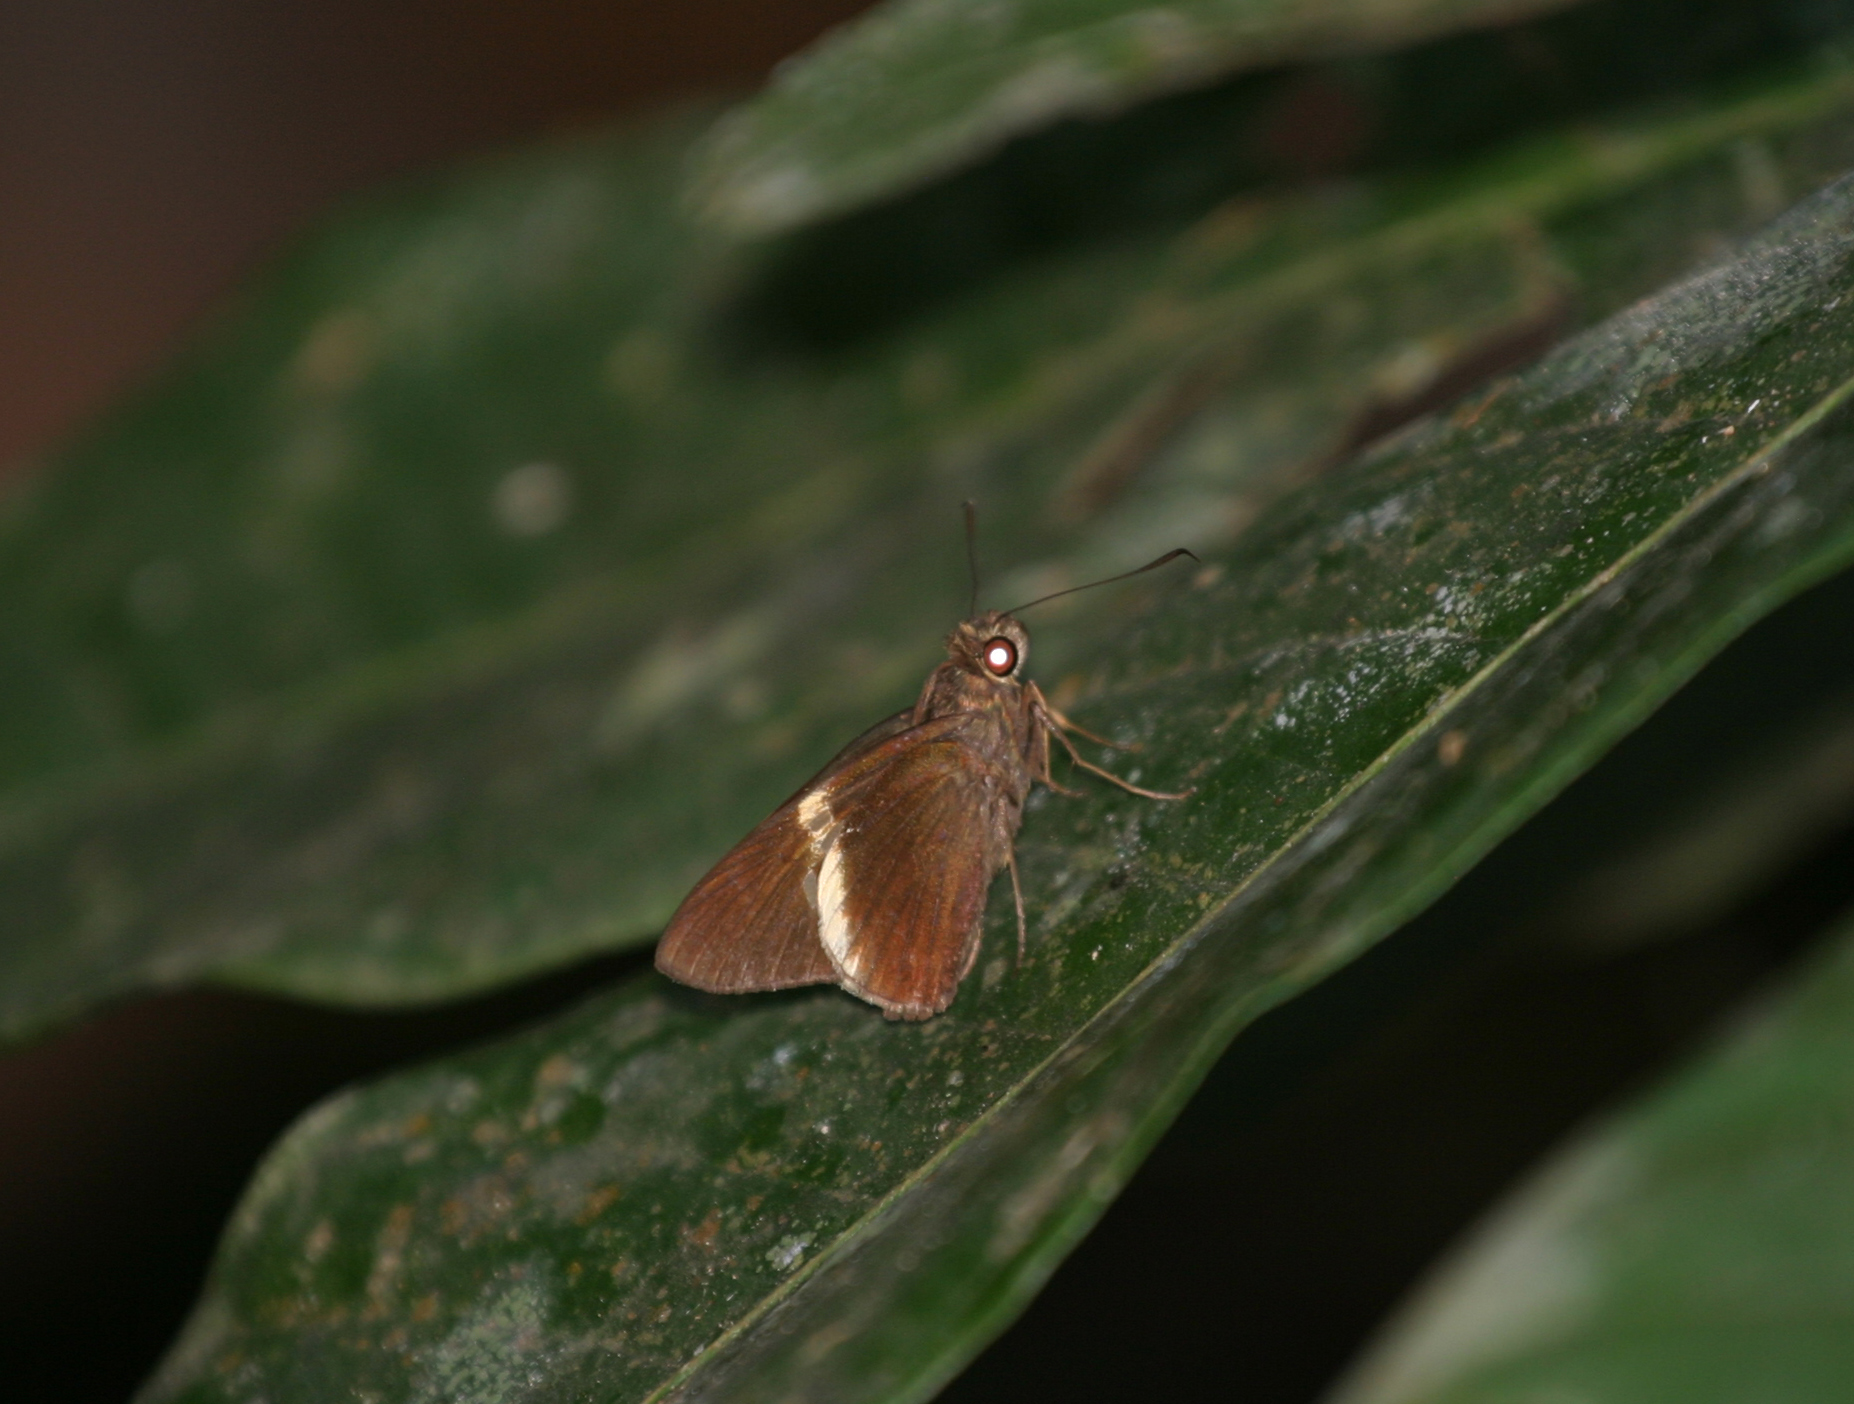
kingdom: Animalia
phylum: Arthropoda
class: Insecta
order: Lepidoptera
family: Hesperiidae
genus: Lotongus
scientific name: Lotongus calathus
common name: White-tipped palmer
